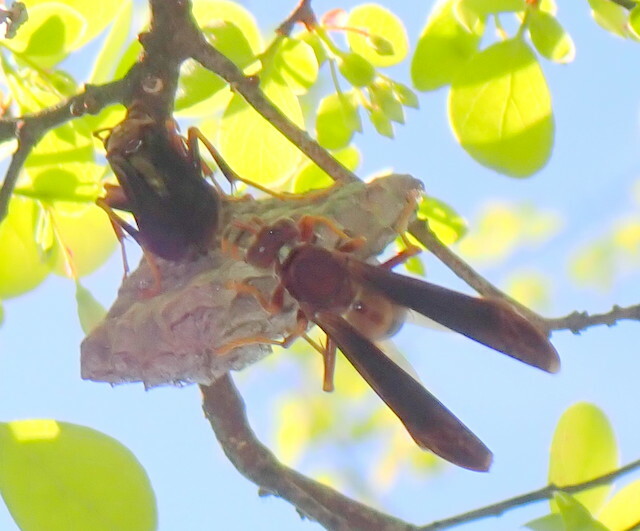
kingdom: Animalia
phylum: Arthropoda
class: Insecta
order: Hymenoptera
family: Eumenidae
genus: Polistes
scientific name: Polistes annularis
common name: Ringed paper wasp
